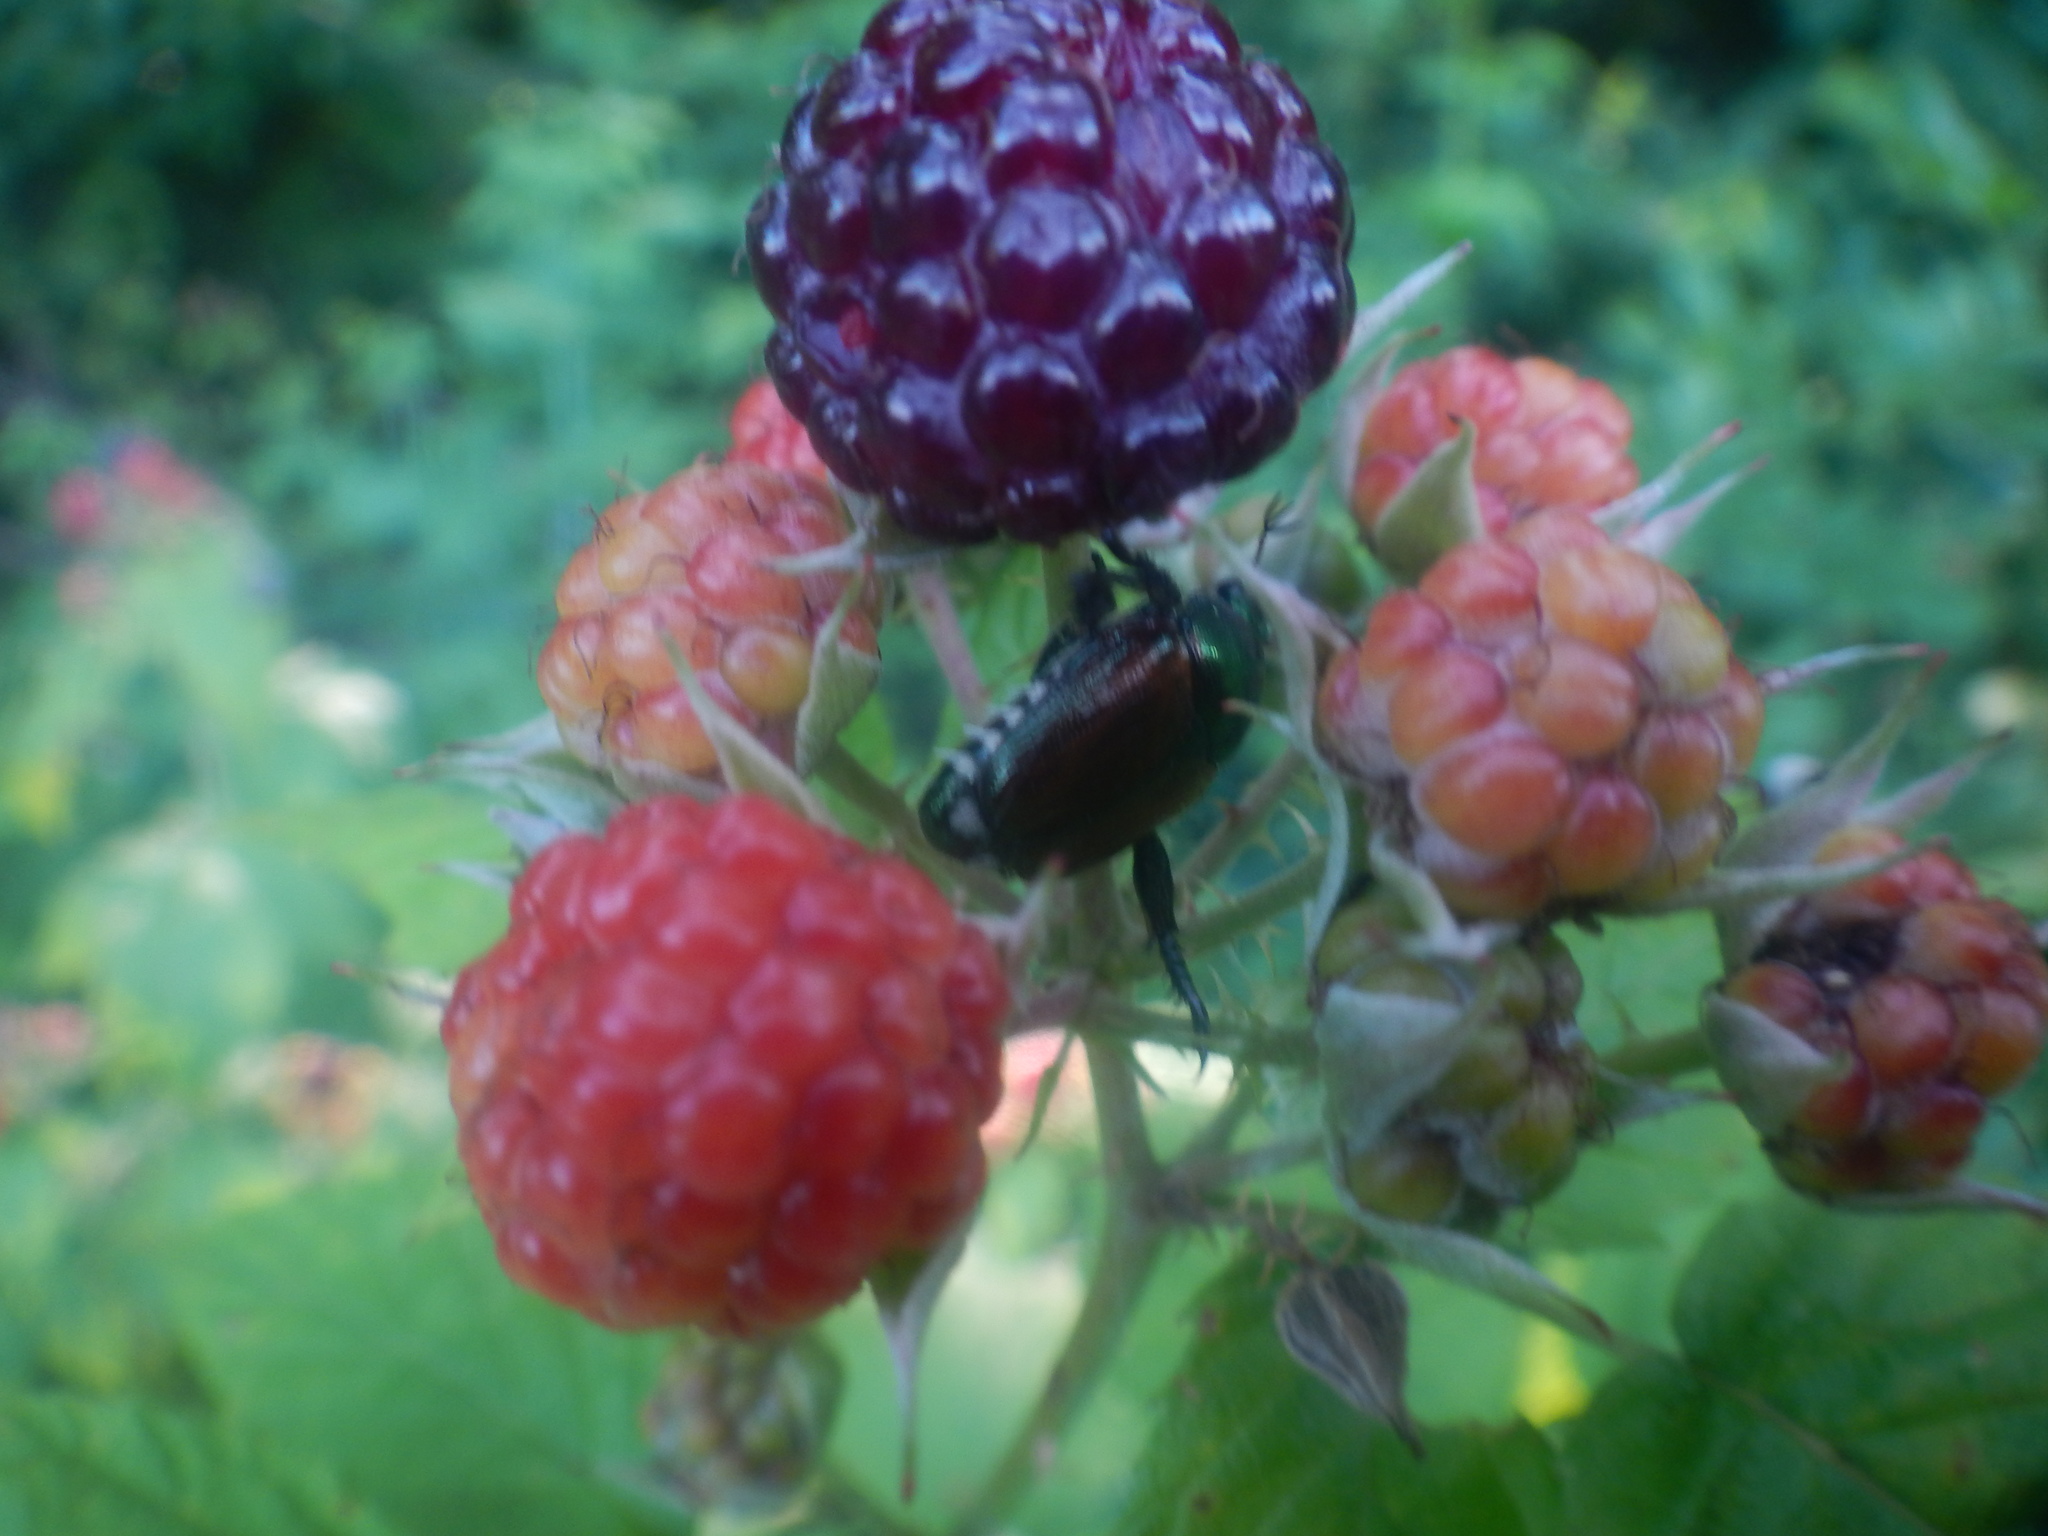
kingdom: Animalia
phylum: Arthropoda
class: Insecta
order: Coleoptera
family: Scarabaeidae
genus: Popillia
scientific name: Popillia japonica
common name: Japanese beetle
